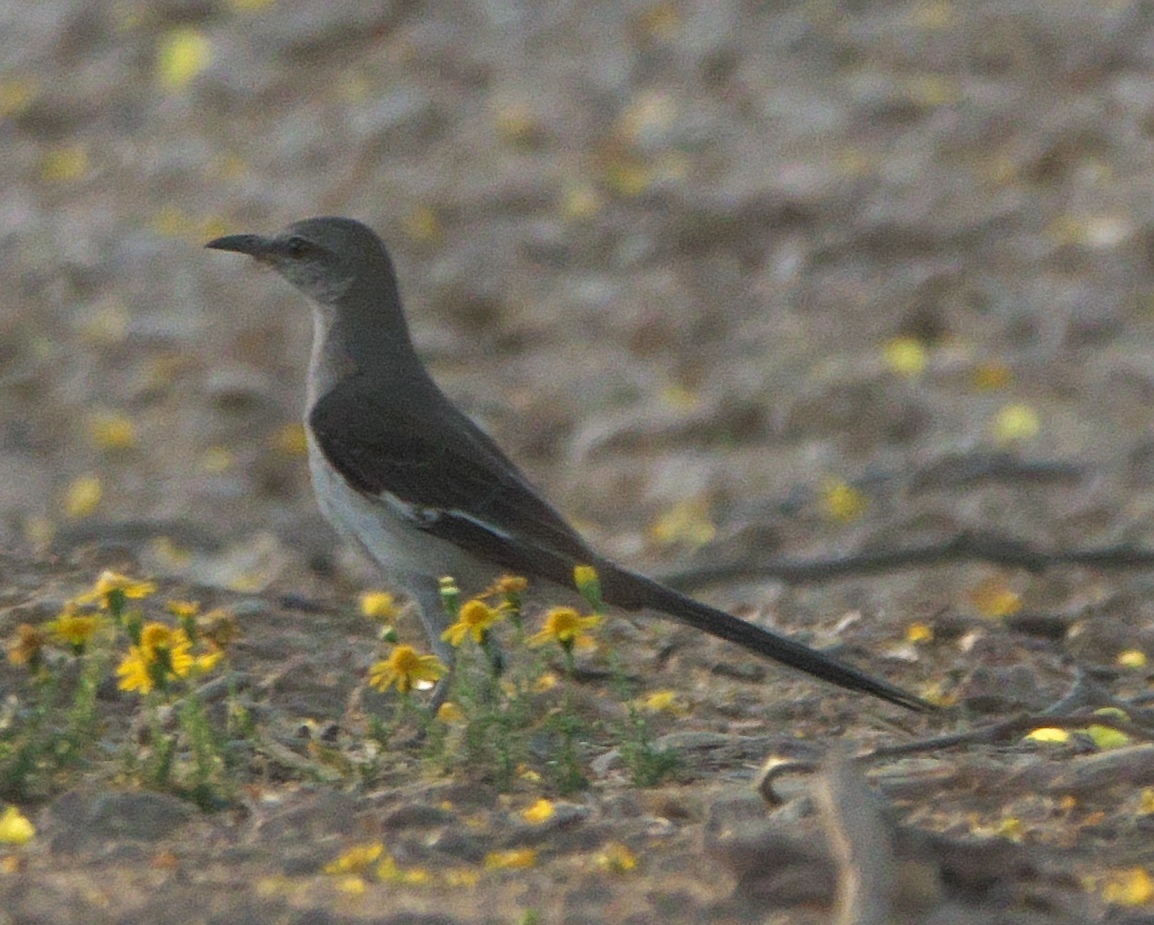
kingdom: Animalia
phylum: Chordata
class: Aves
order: Passeriformes
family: Mimidae
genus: Mimus
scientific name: Mimus polyglottos
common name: Northern mockingbird
